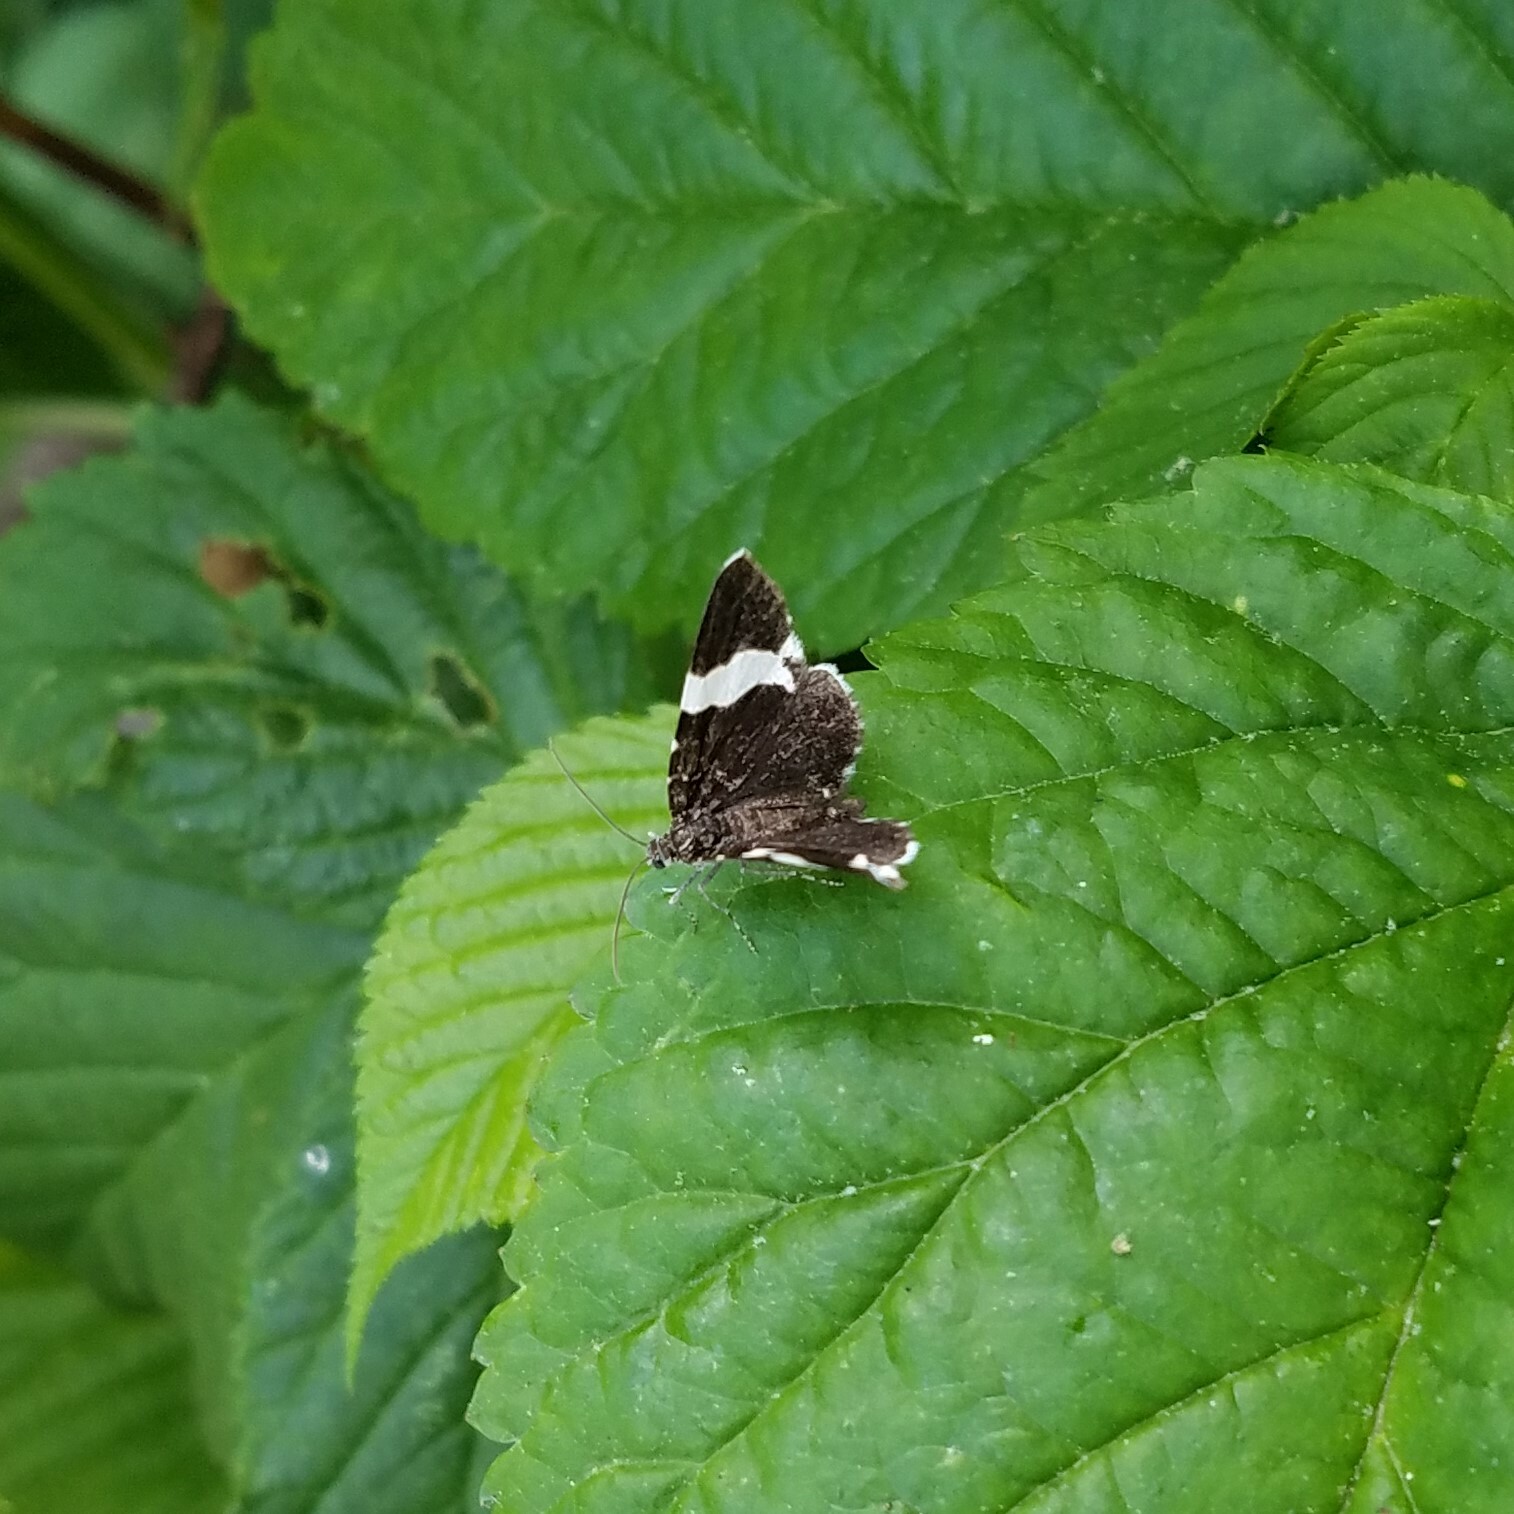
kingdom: Animalia
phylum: Arthropoda
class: Insecta
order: Lepidoptera
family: Geometridae
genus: Trichodezia
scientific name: Trichodezia albovittata
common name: White striped black
